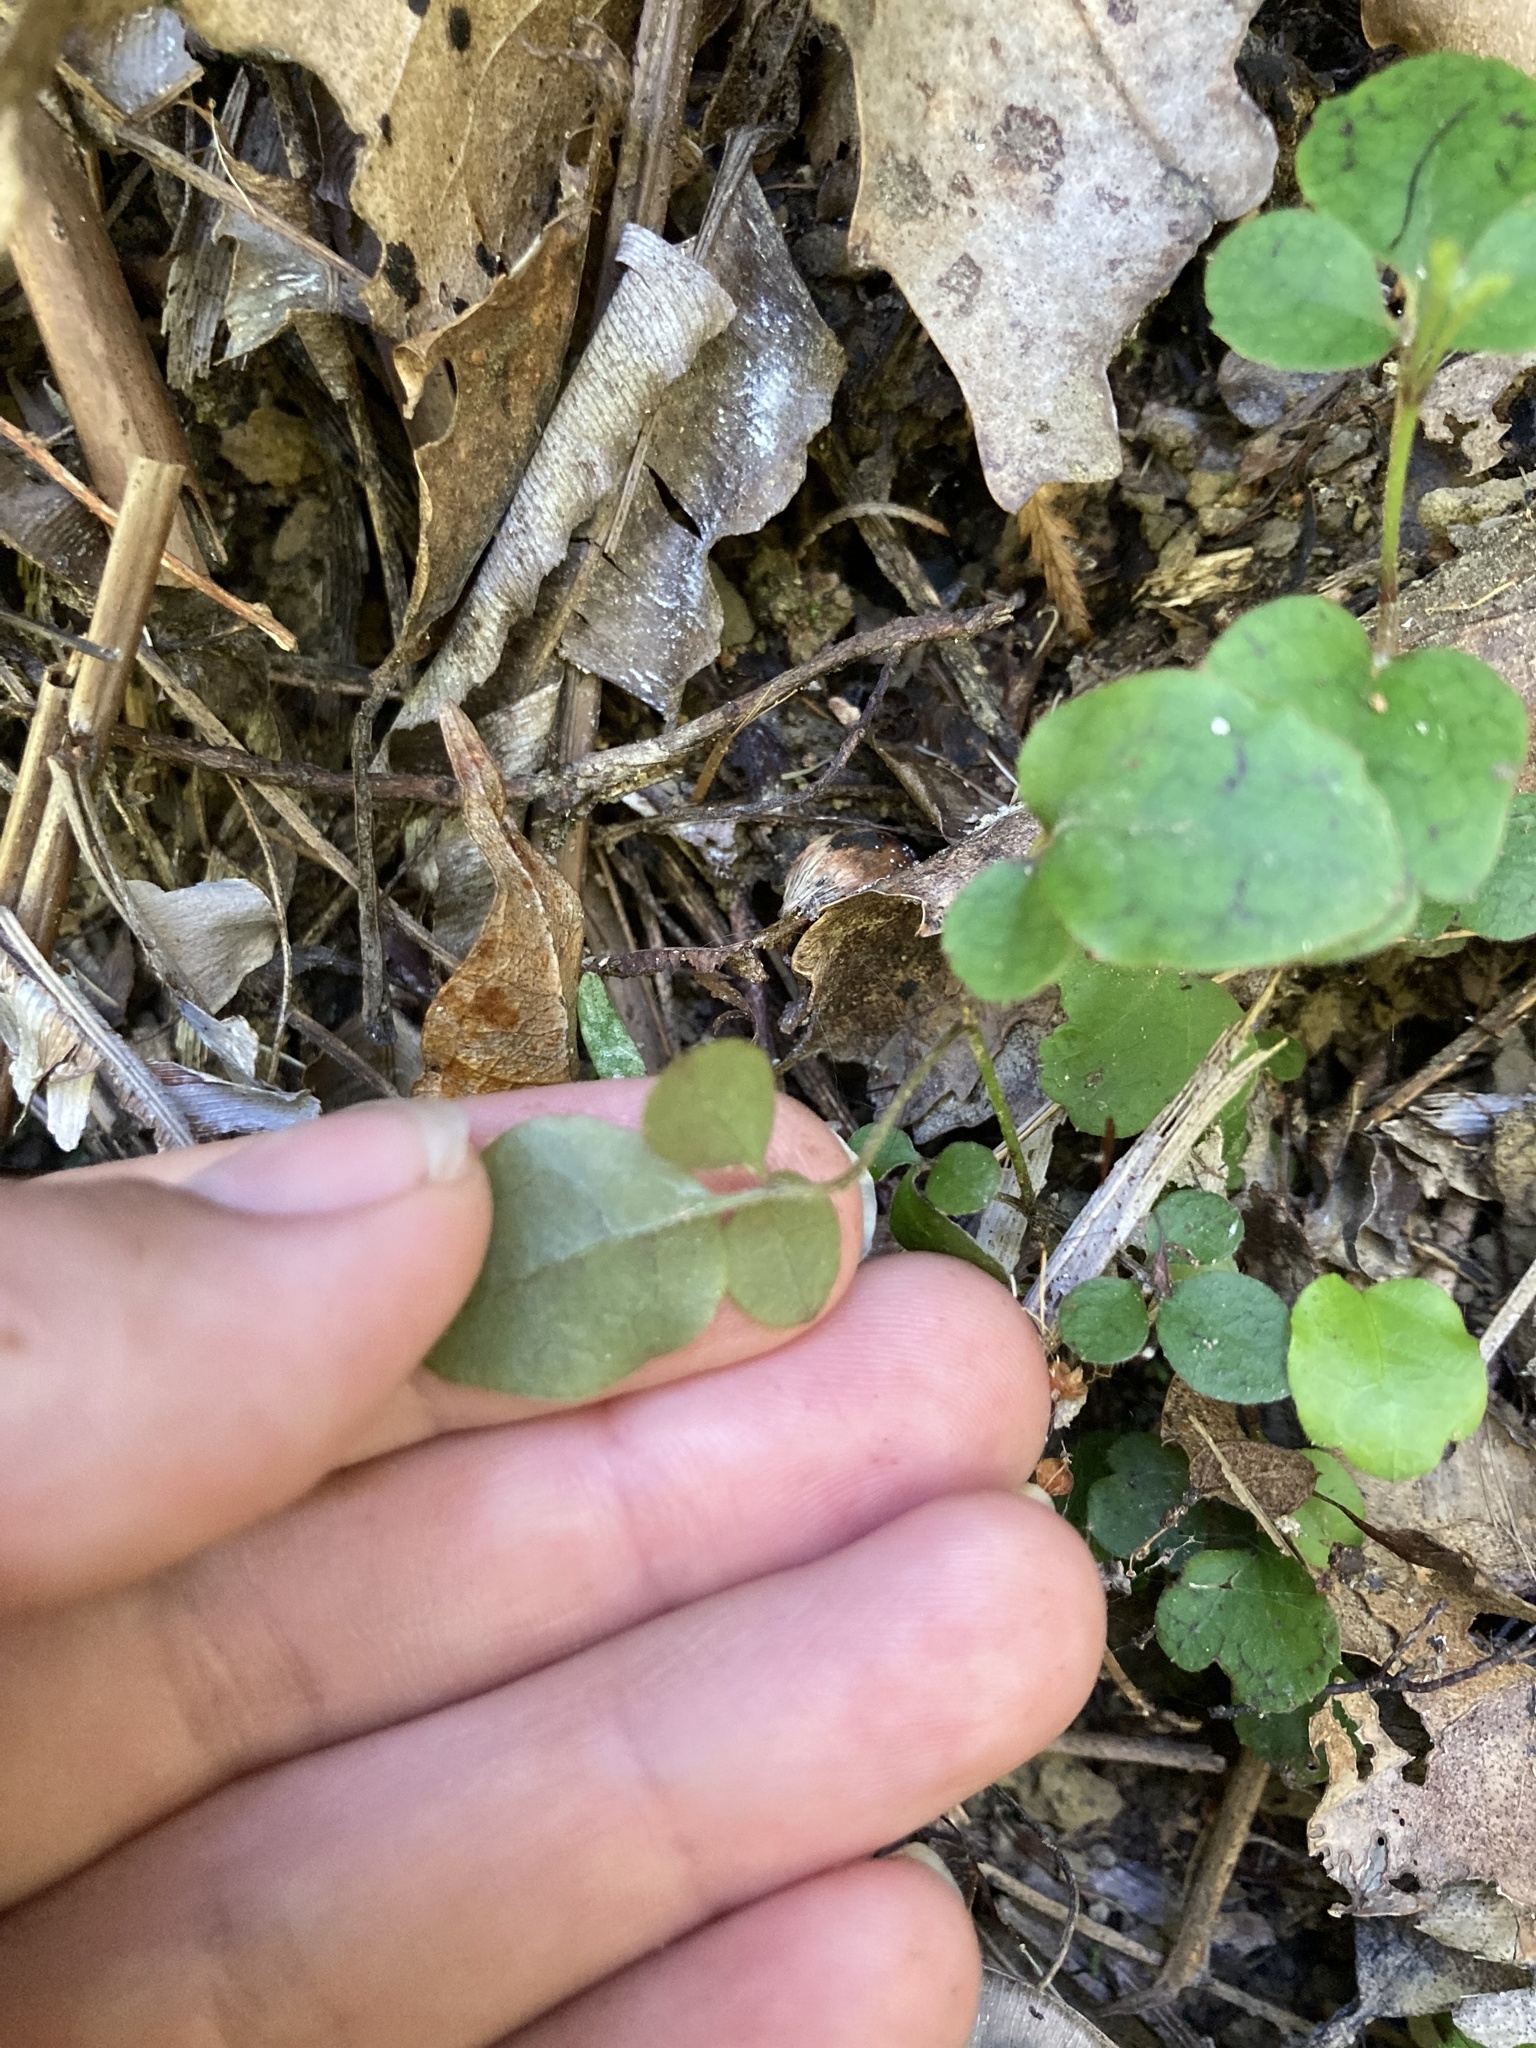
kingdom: Plantae
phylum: Tracheophyta
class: Magnoliopsida
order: Ranunculales
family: Ranunculaceae
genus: Clematis
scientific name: Clematis paniculata
